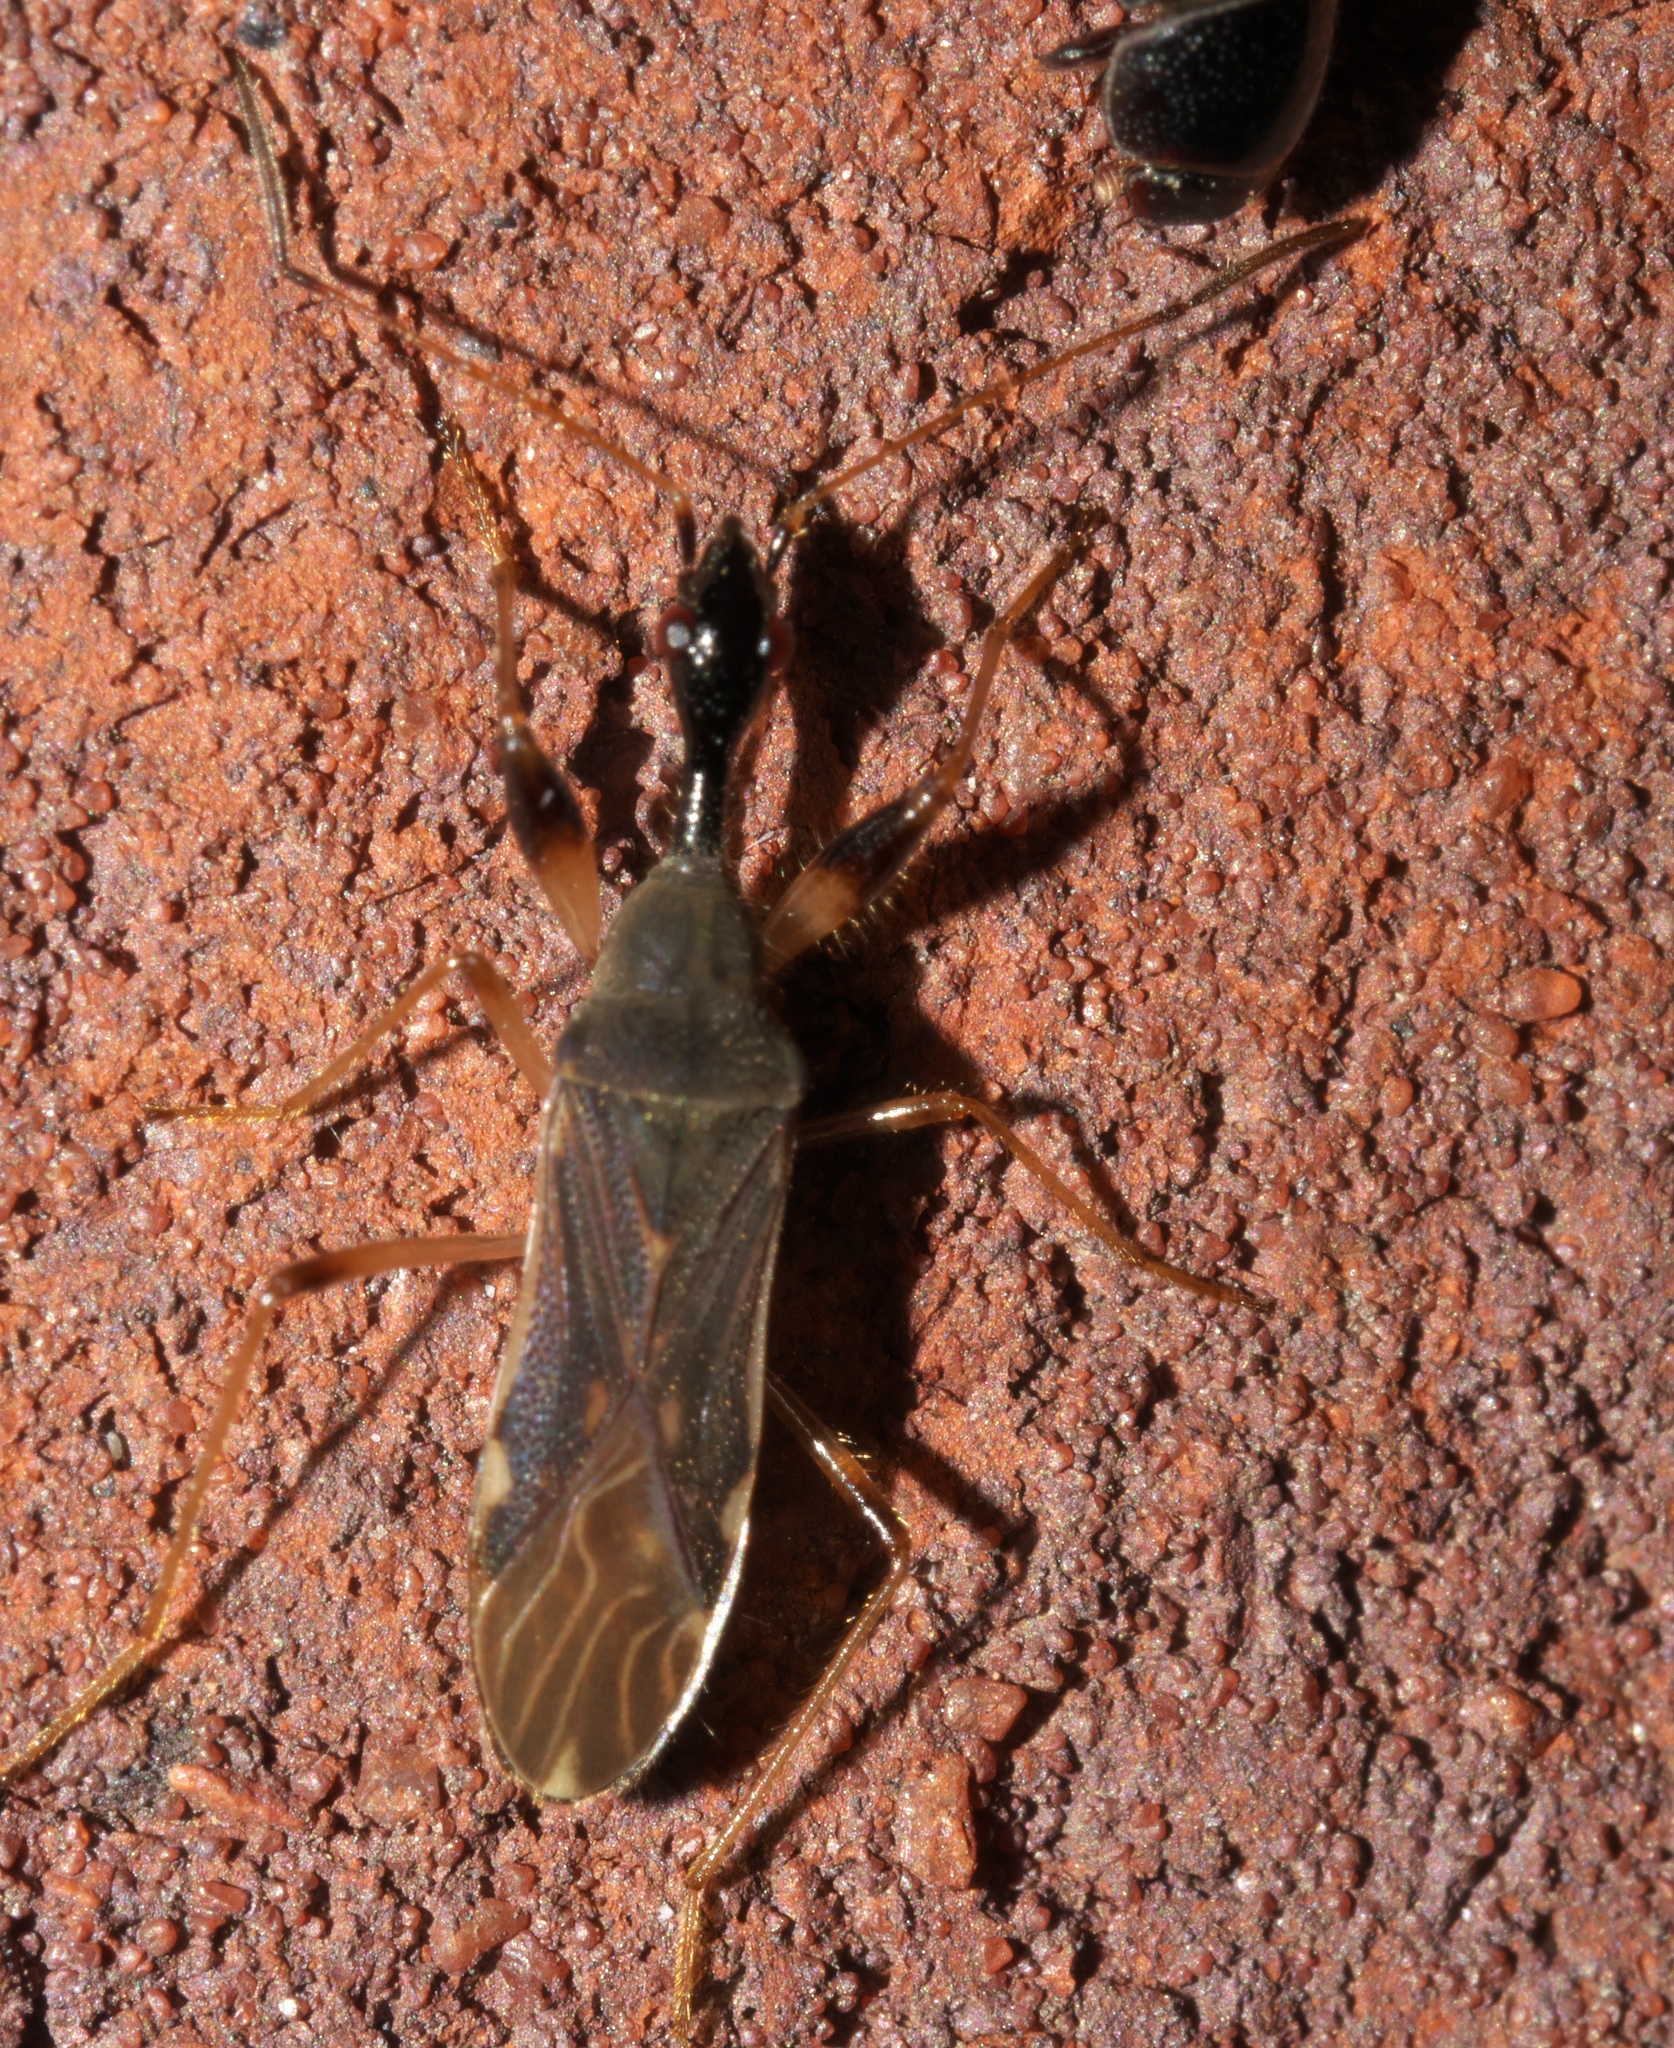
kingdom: Animalia
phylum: Arthropoda
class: Insecta
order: Hemiptera
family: Rhyparochromidae
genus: Myodocha
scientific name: Myodocha serripes
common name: Long-necked seed bug
